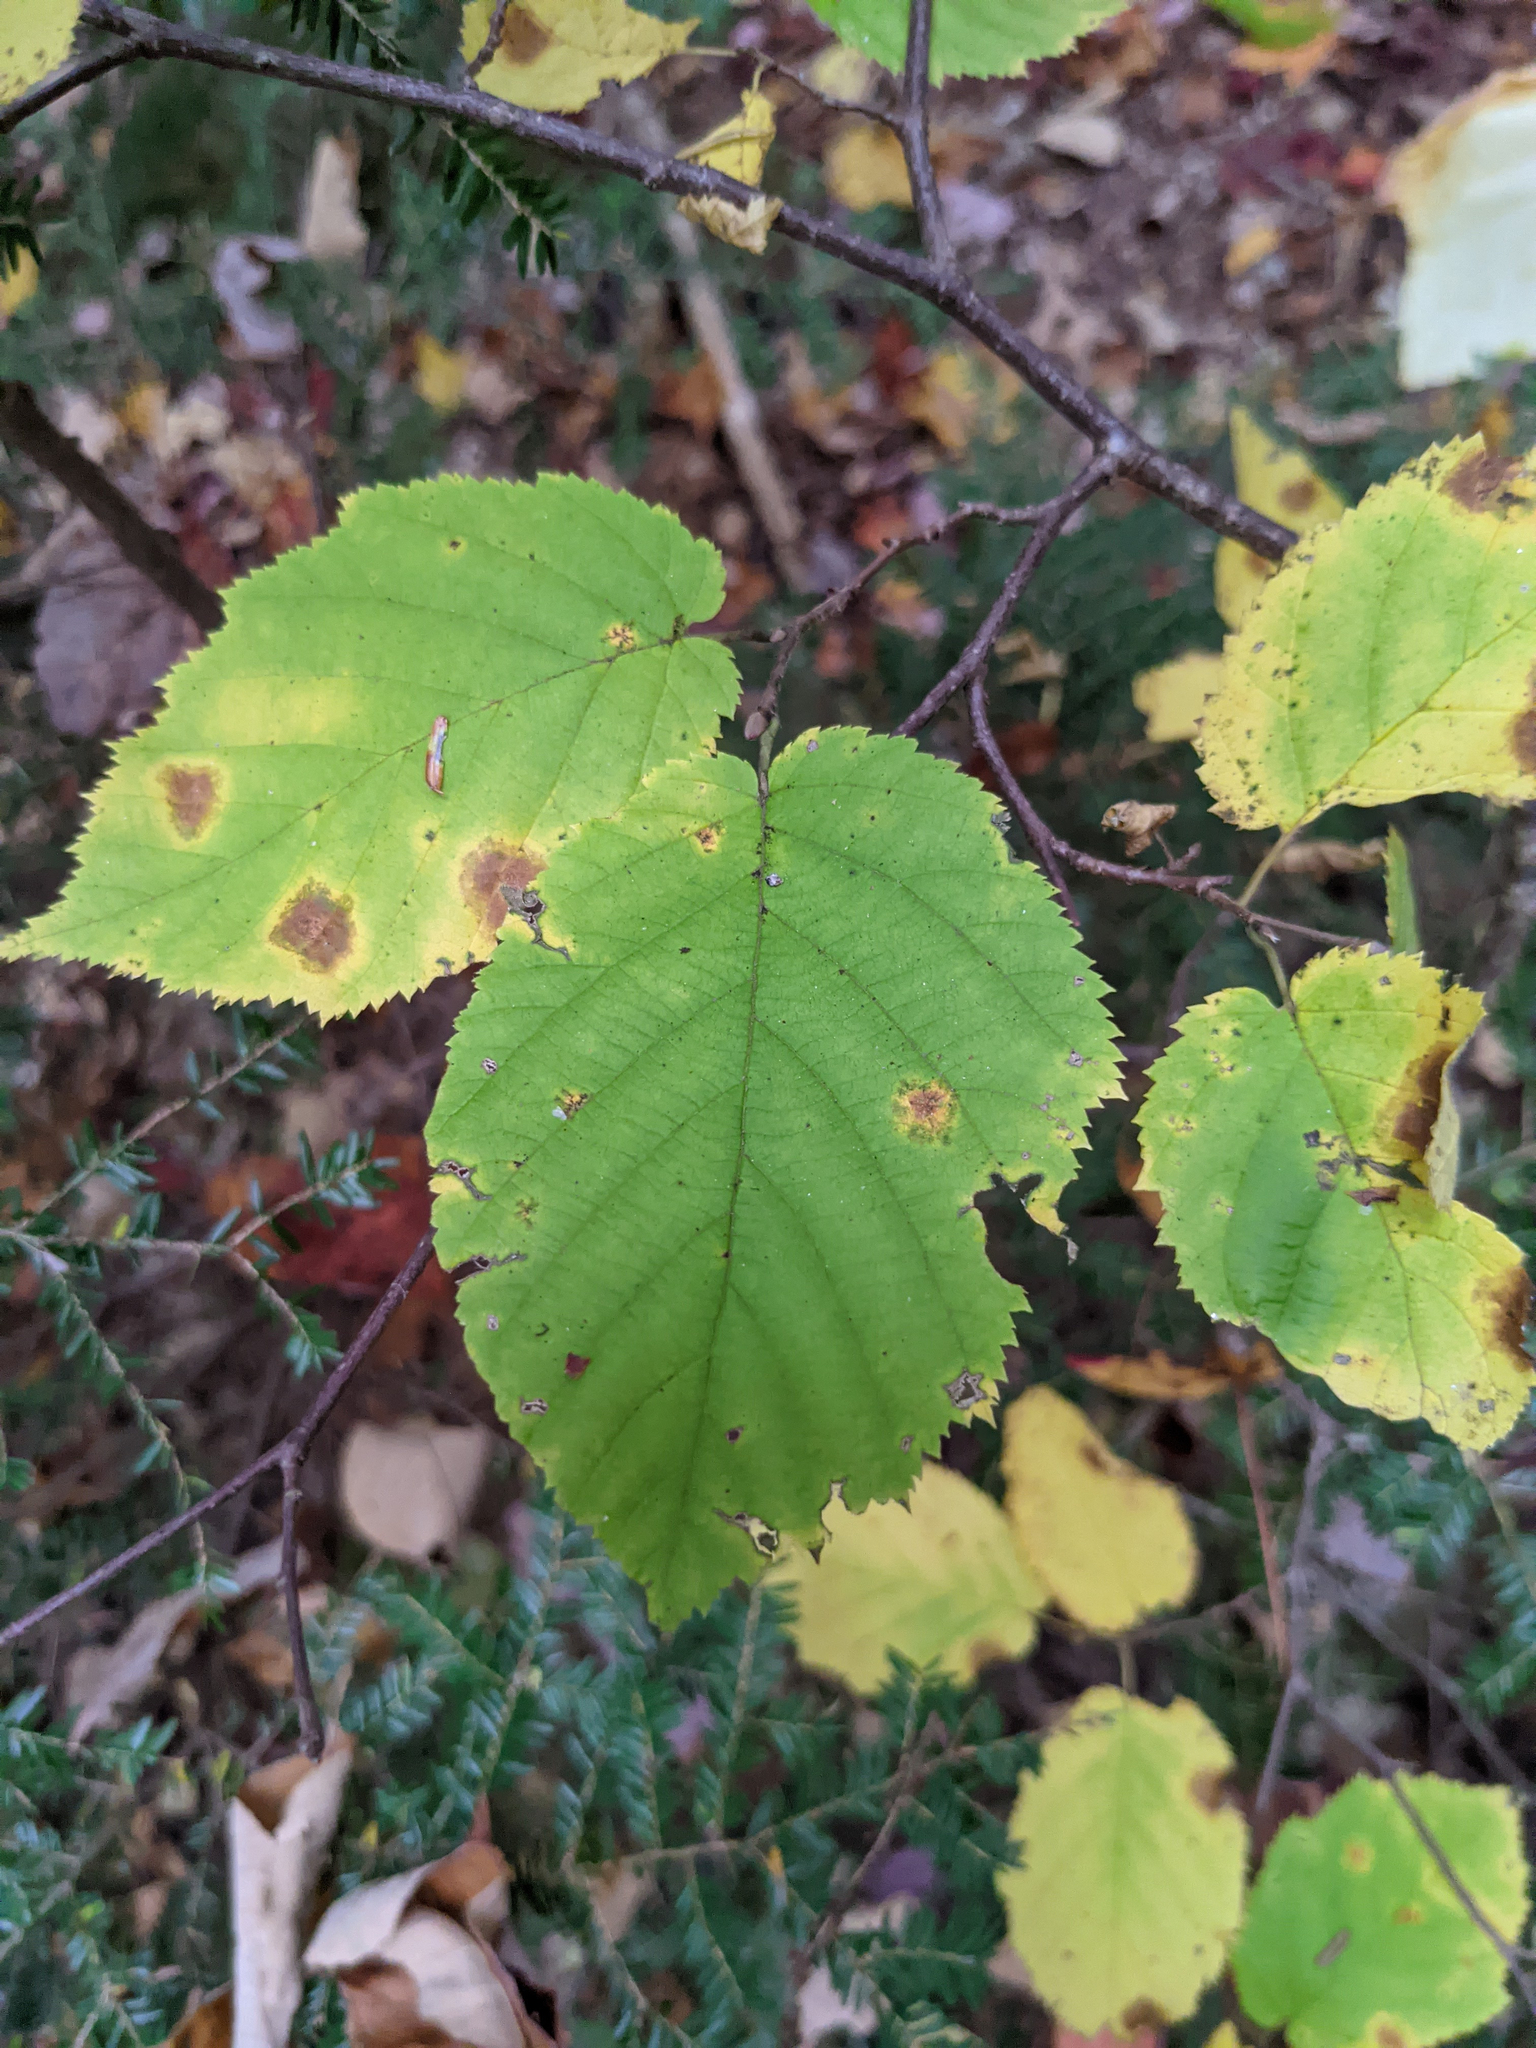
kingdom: Plantae
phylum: Tracheophyta
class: Magnoliopsida
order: Fagales
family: Betulaceae
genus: Corylus
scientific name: Corylus cornuta
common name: Beaked hazel
